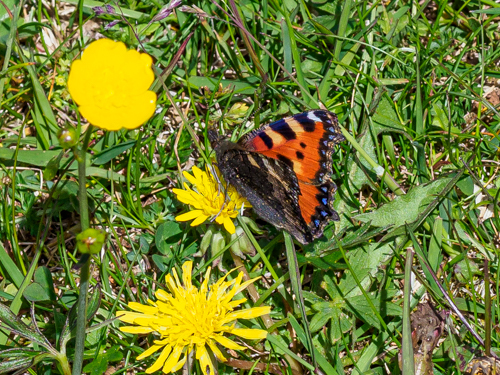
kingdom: Animalia
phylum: Arthropoda
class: Insecta
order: Lepidoptera
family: Nymphalidae
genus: Aglais
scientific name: Aglais urticae
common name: Small tortoiseshell
